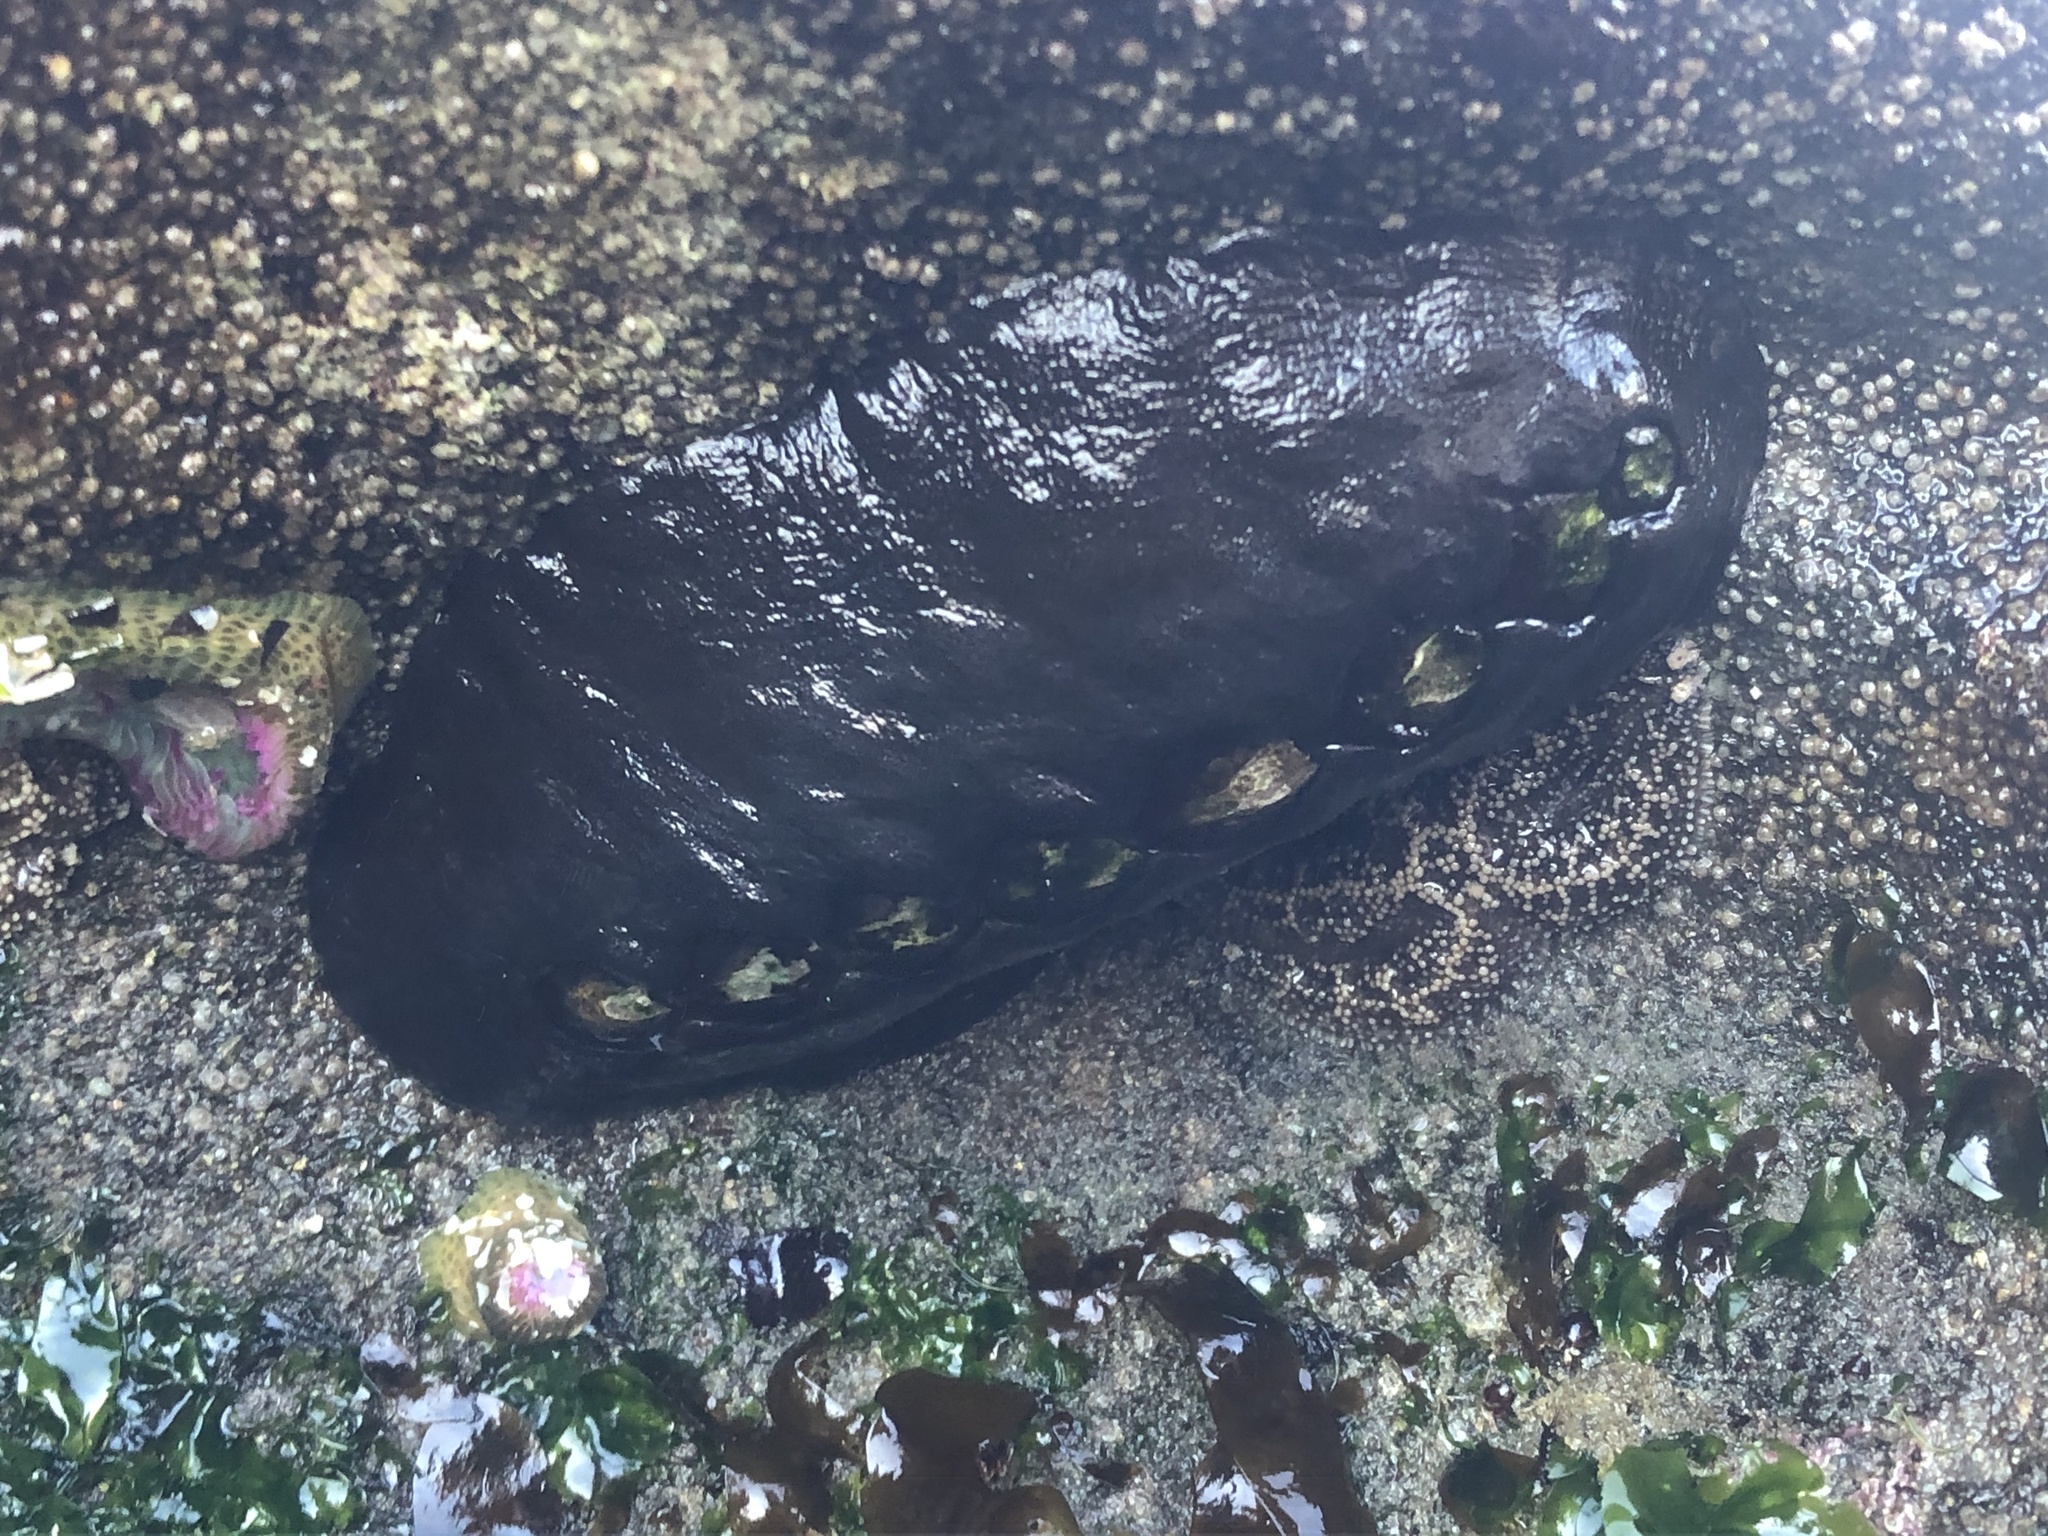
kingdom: Animalia
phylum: Mollusca
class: Polyplacophora
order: Chitonida
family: Mopaliidae
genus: Katharina
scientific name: Katharina tunicata
